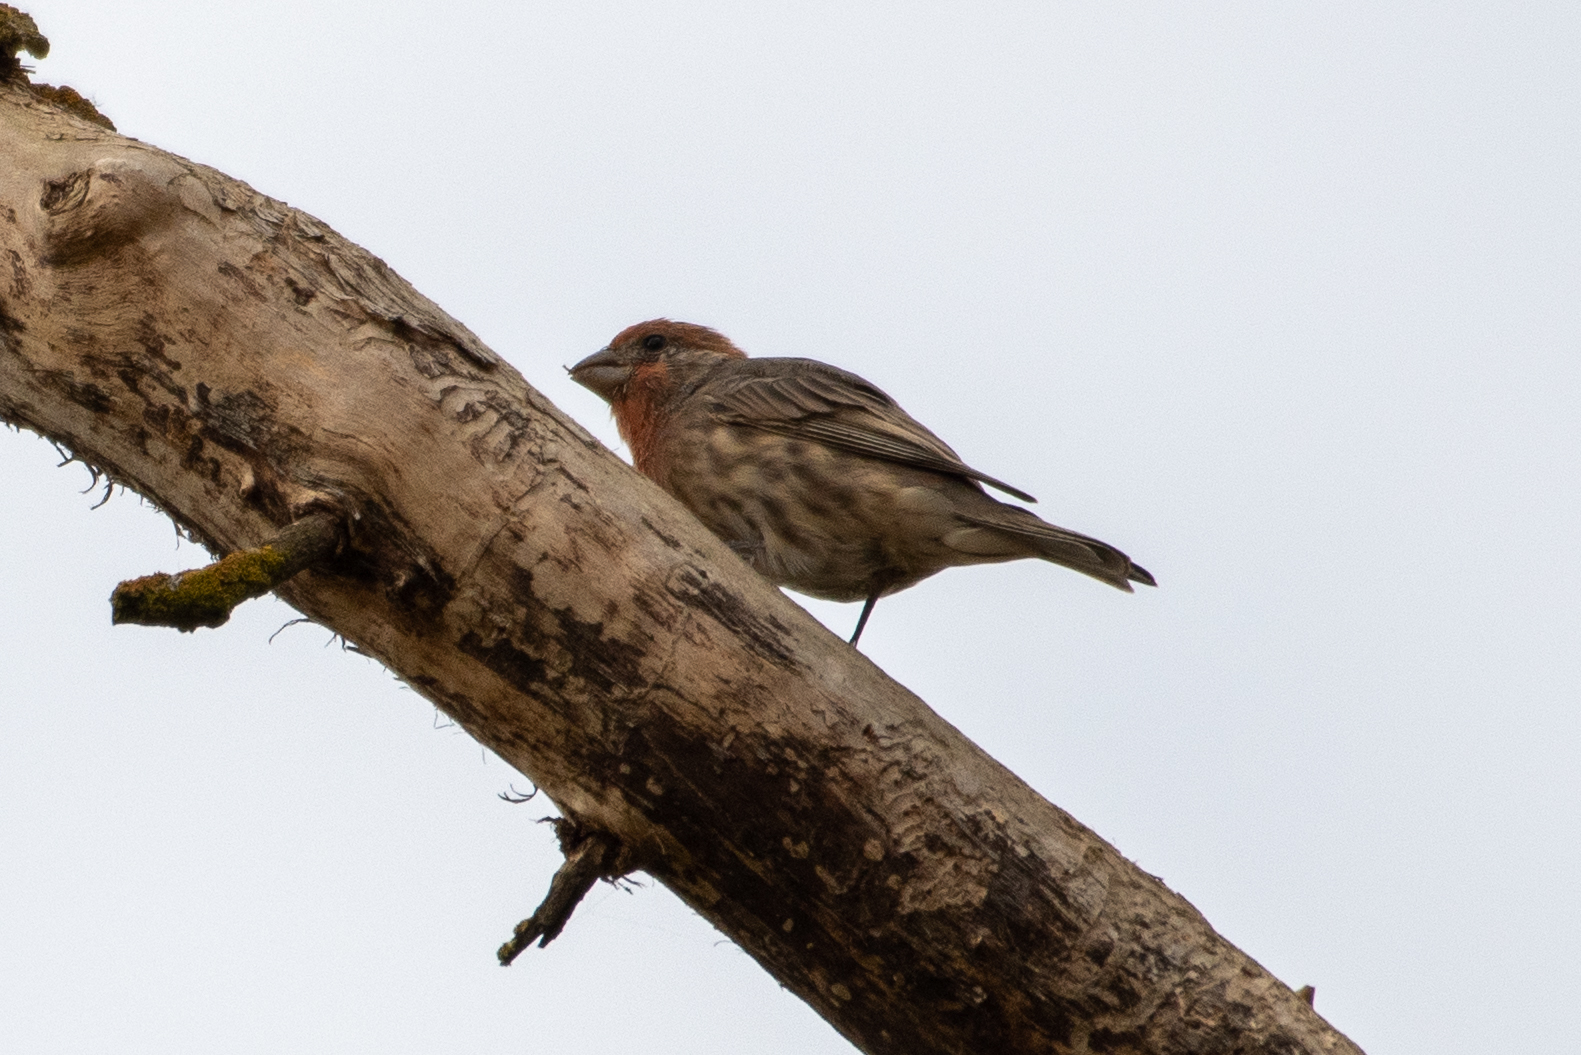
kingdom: Animalia
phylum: Chordata
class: Aves
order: Passeriformes
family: Fringillidae
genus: Haemorhous
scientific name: Haemorhous mexicanus
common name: House finch
